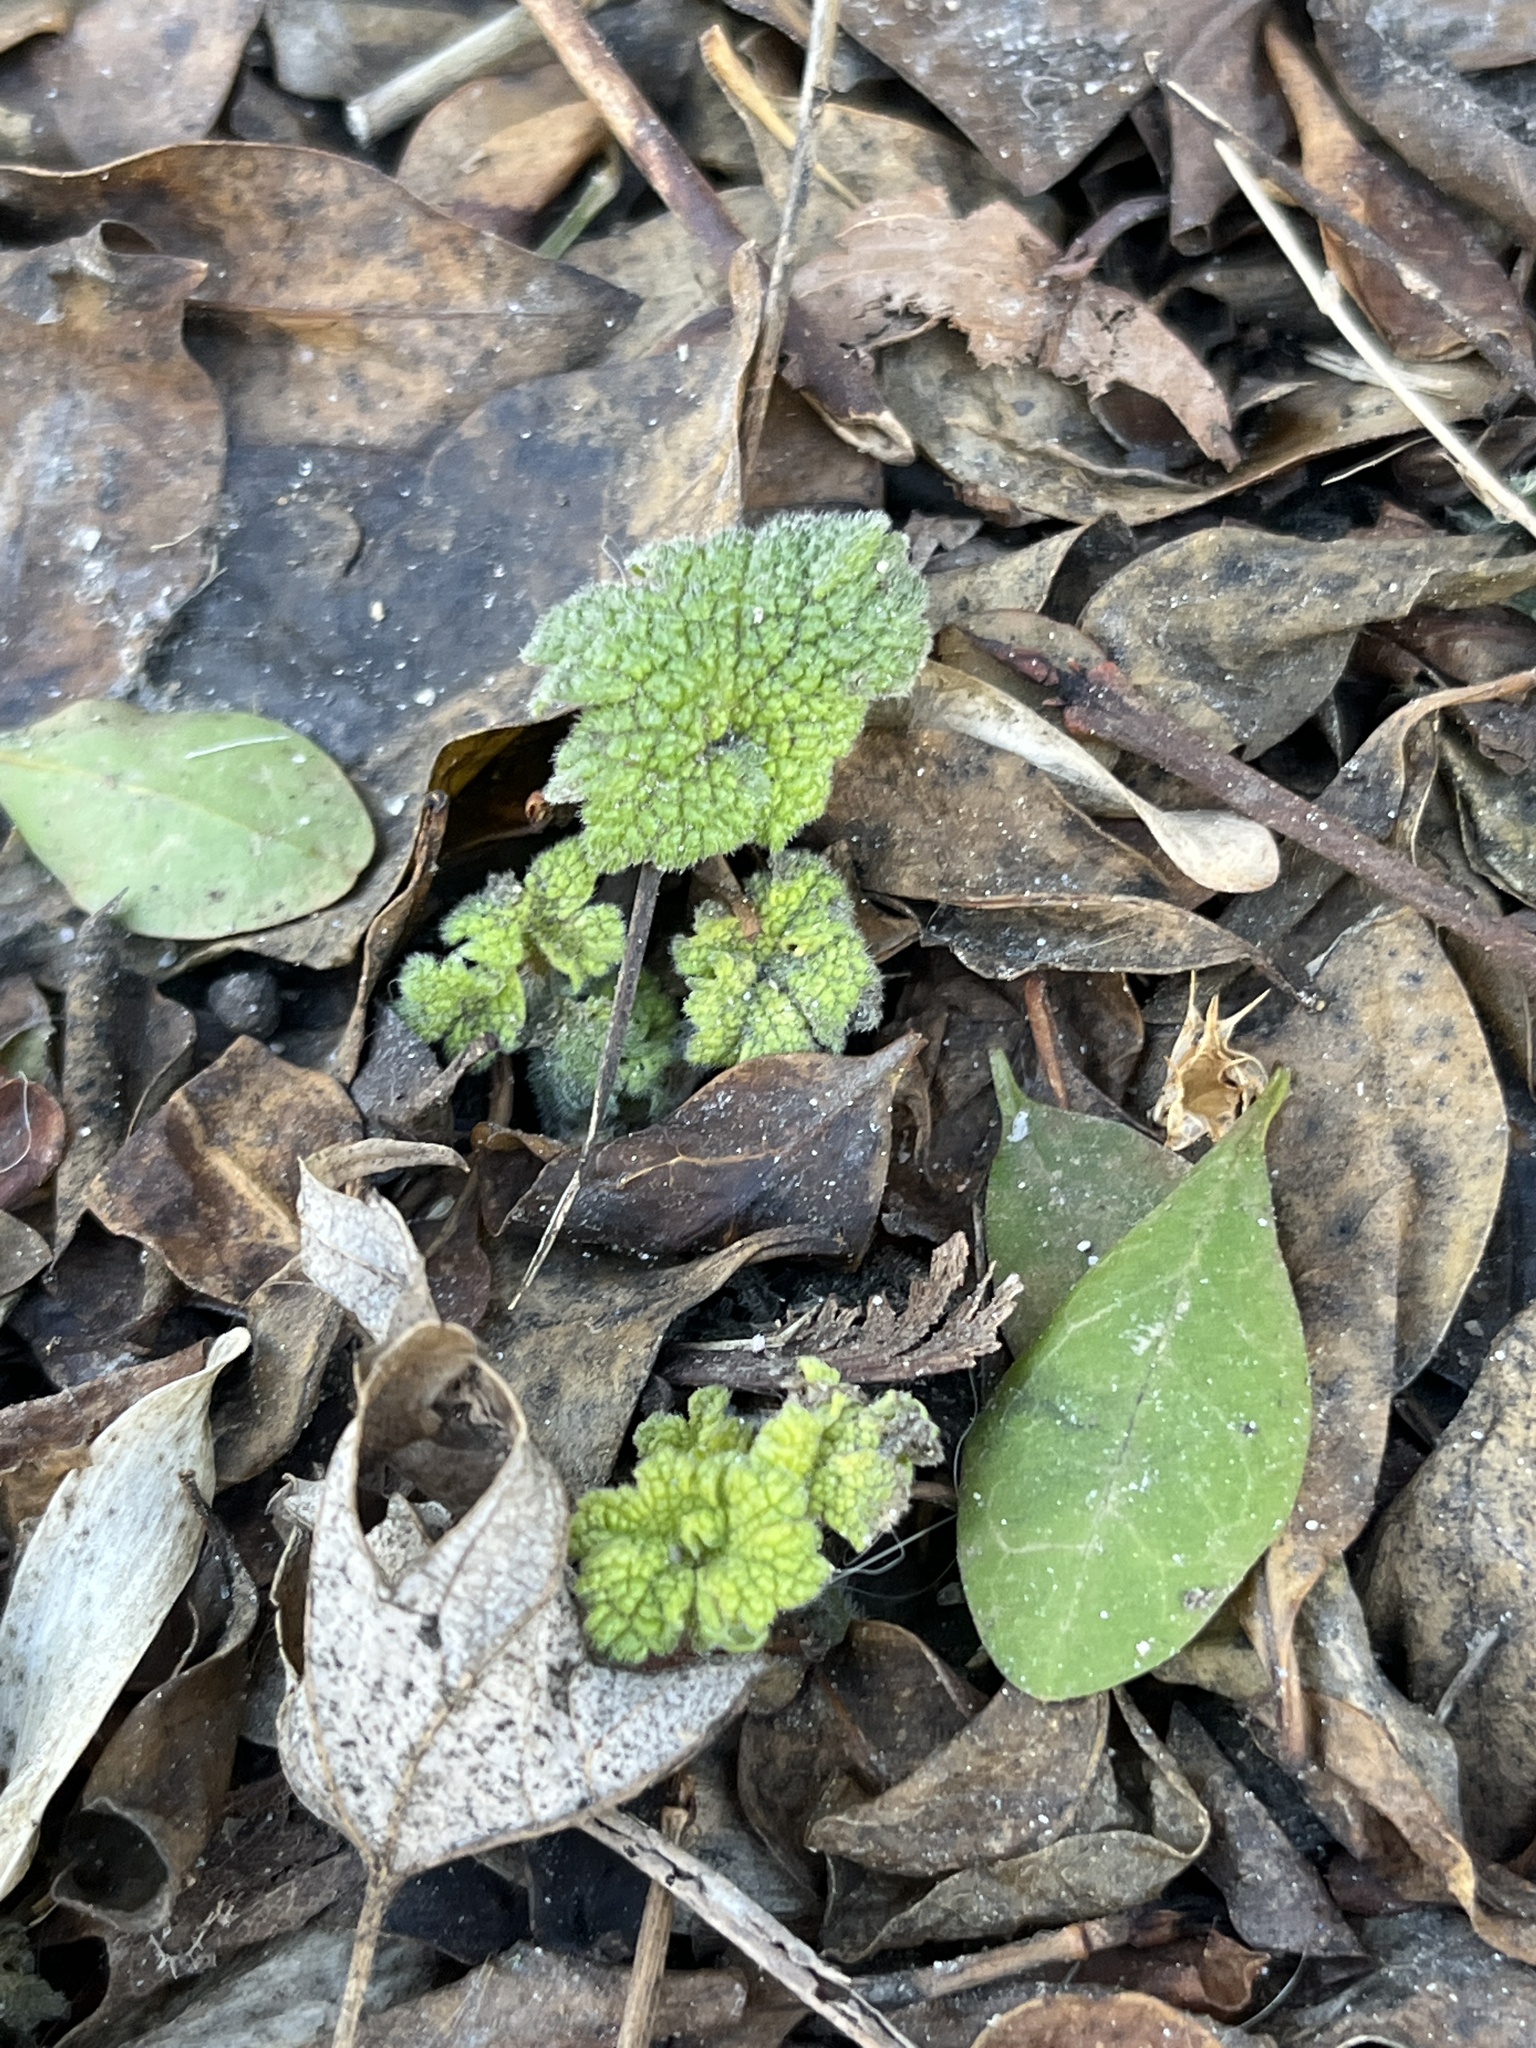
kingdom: Plantae
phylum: Tracheophyta
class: Magnoliopsida
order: Lamiales
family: Lamiaceae
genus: Leonurus
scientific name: Leonurus cardiaca
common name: Motherwort
